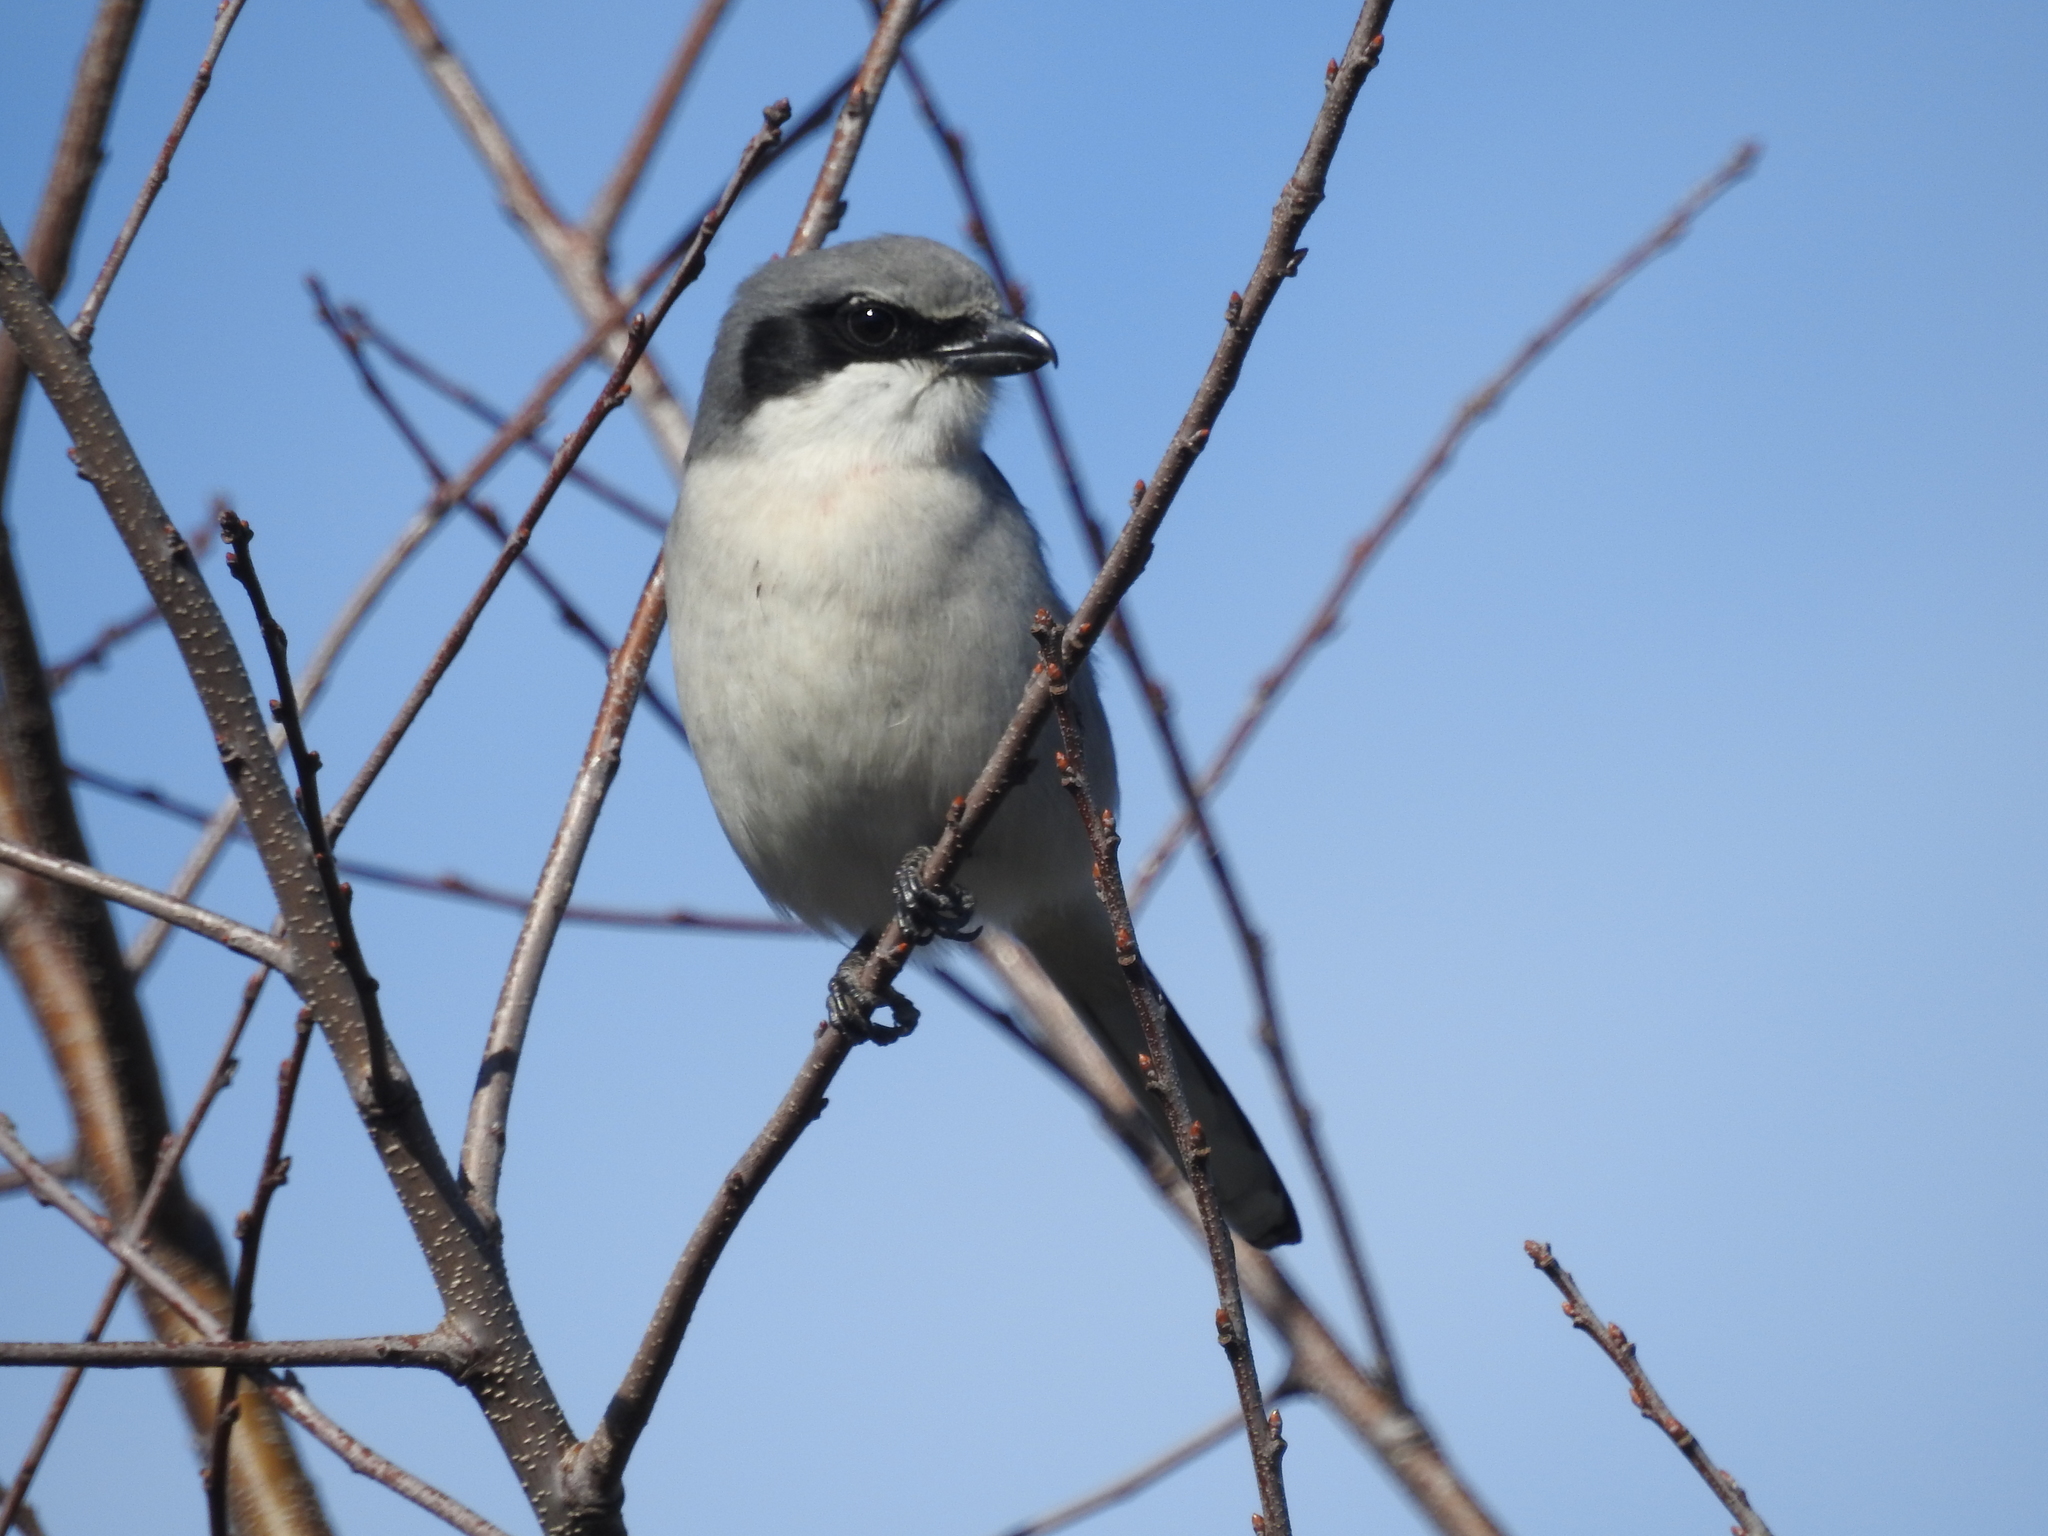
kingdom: Animalia
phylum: Chordata
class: Aves
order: Passeriformes
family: Laniidae
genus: Lanius
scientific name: Lanius ludovicianus
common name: Loggerhead shrike
